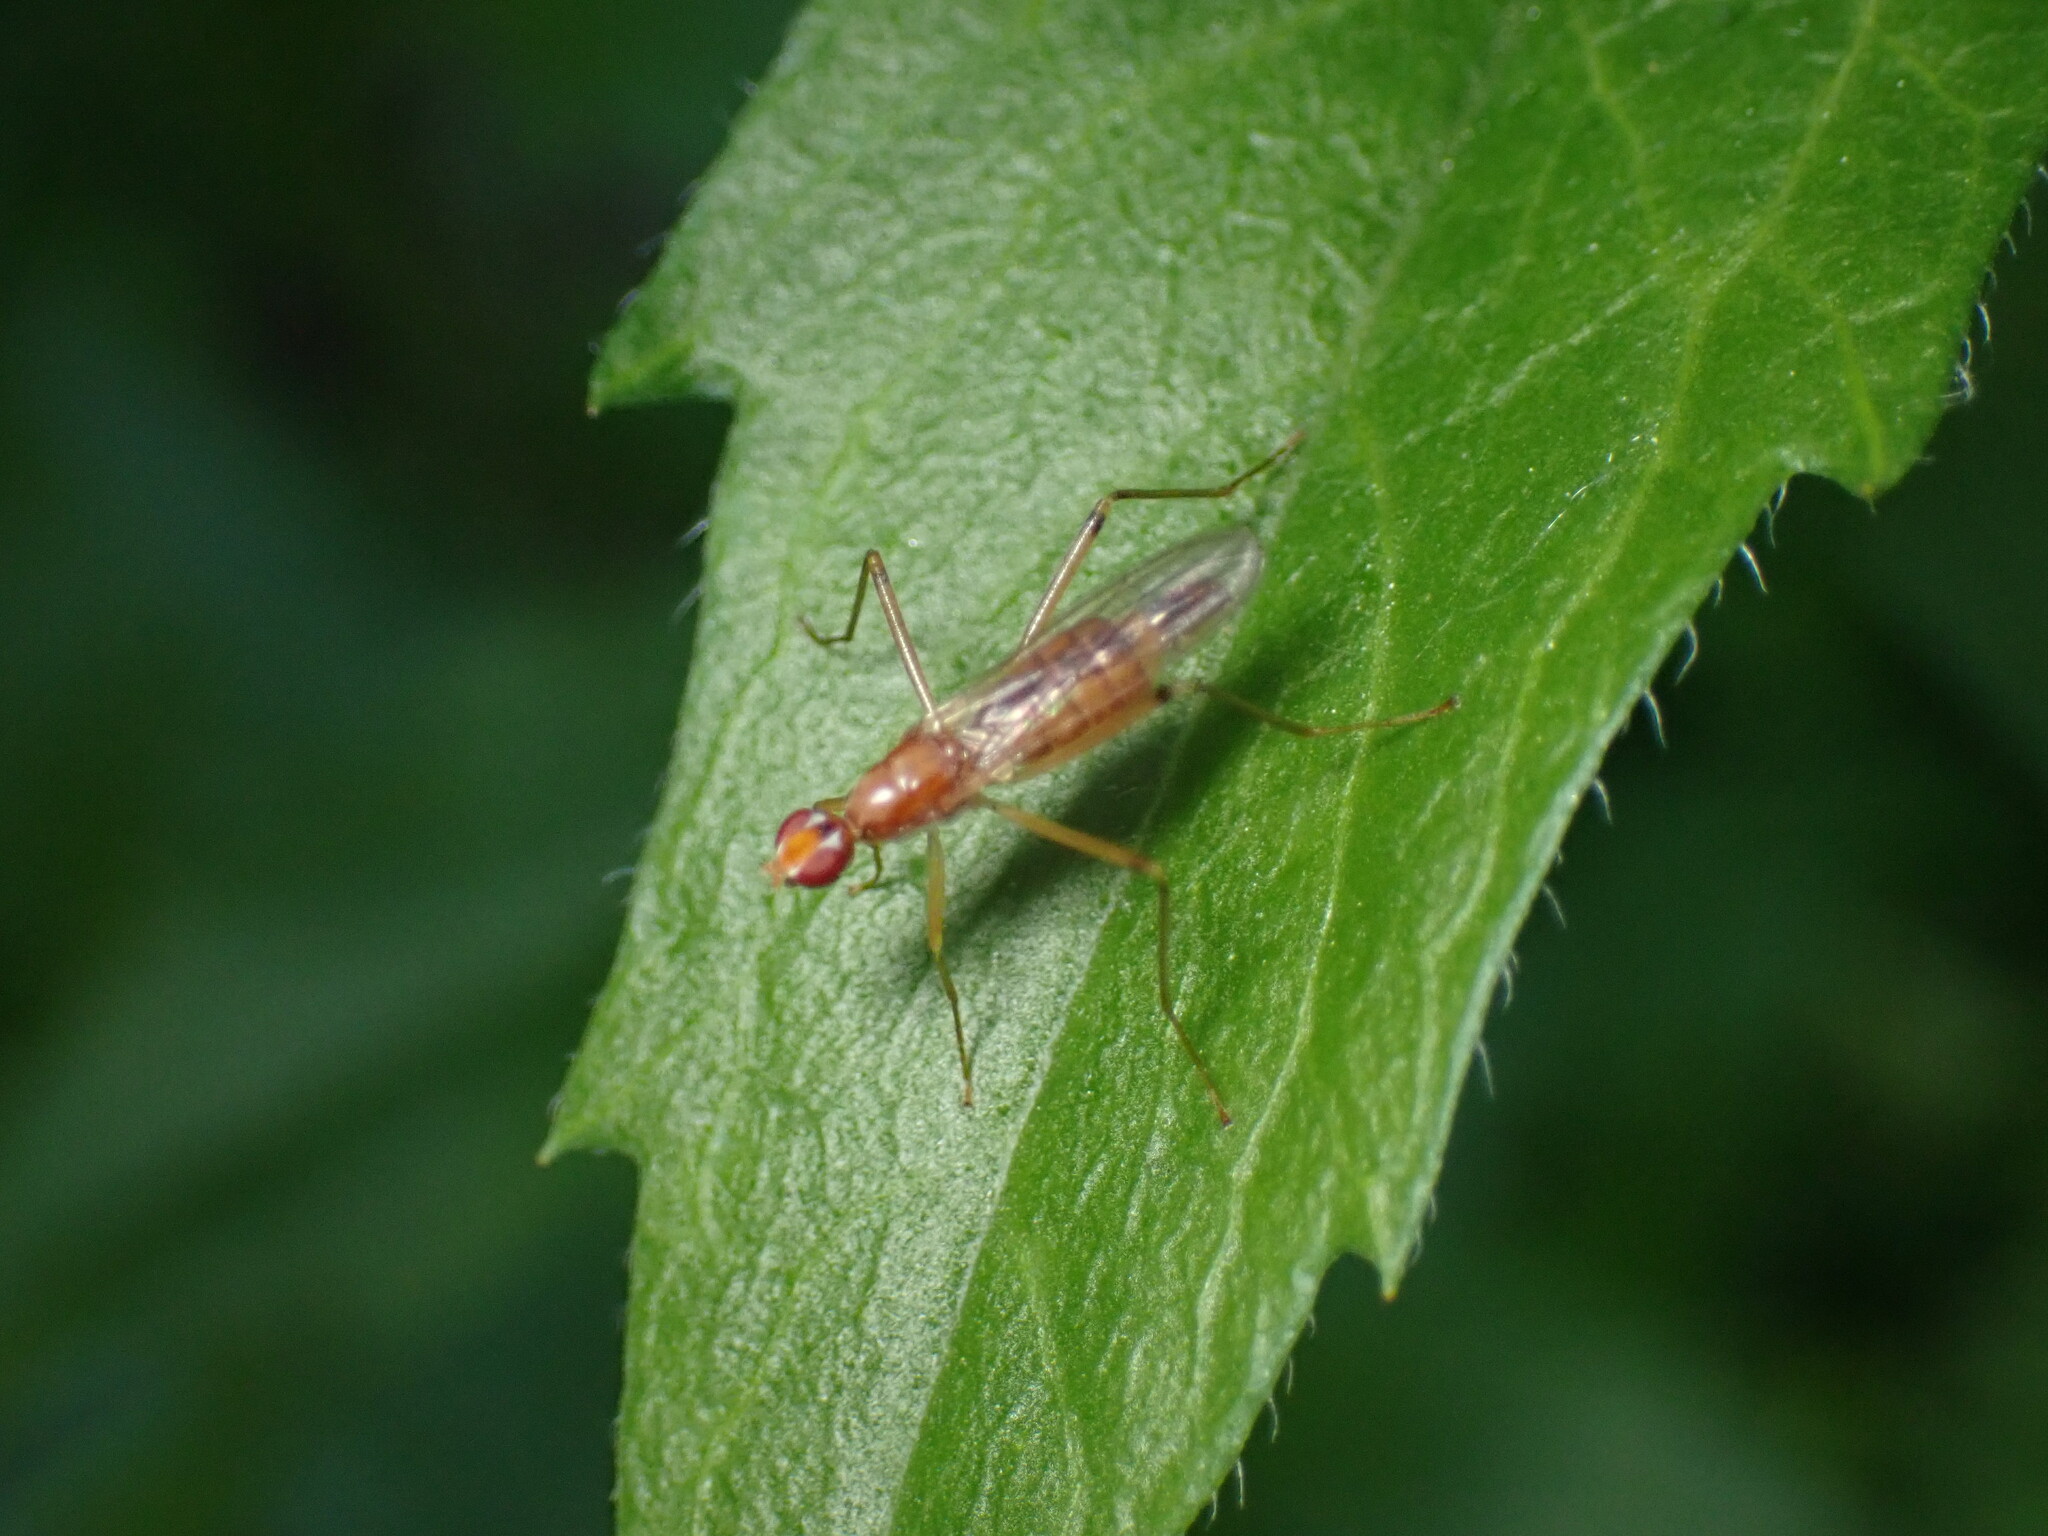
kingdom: Animalia
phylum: Arthropoda
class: Insecta
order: Diptera
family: Micropezidae
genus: Compsobata
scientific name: Compsobata univitta
